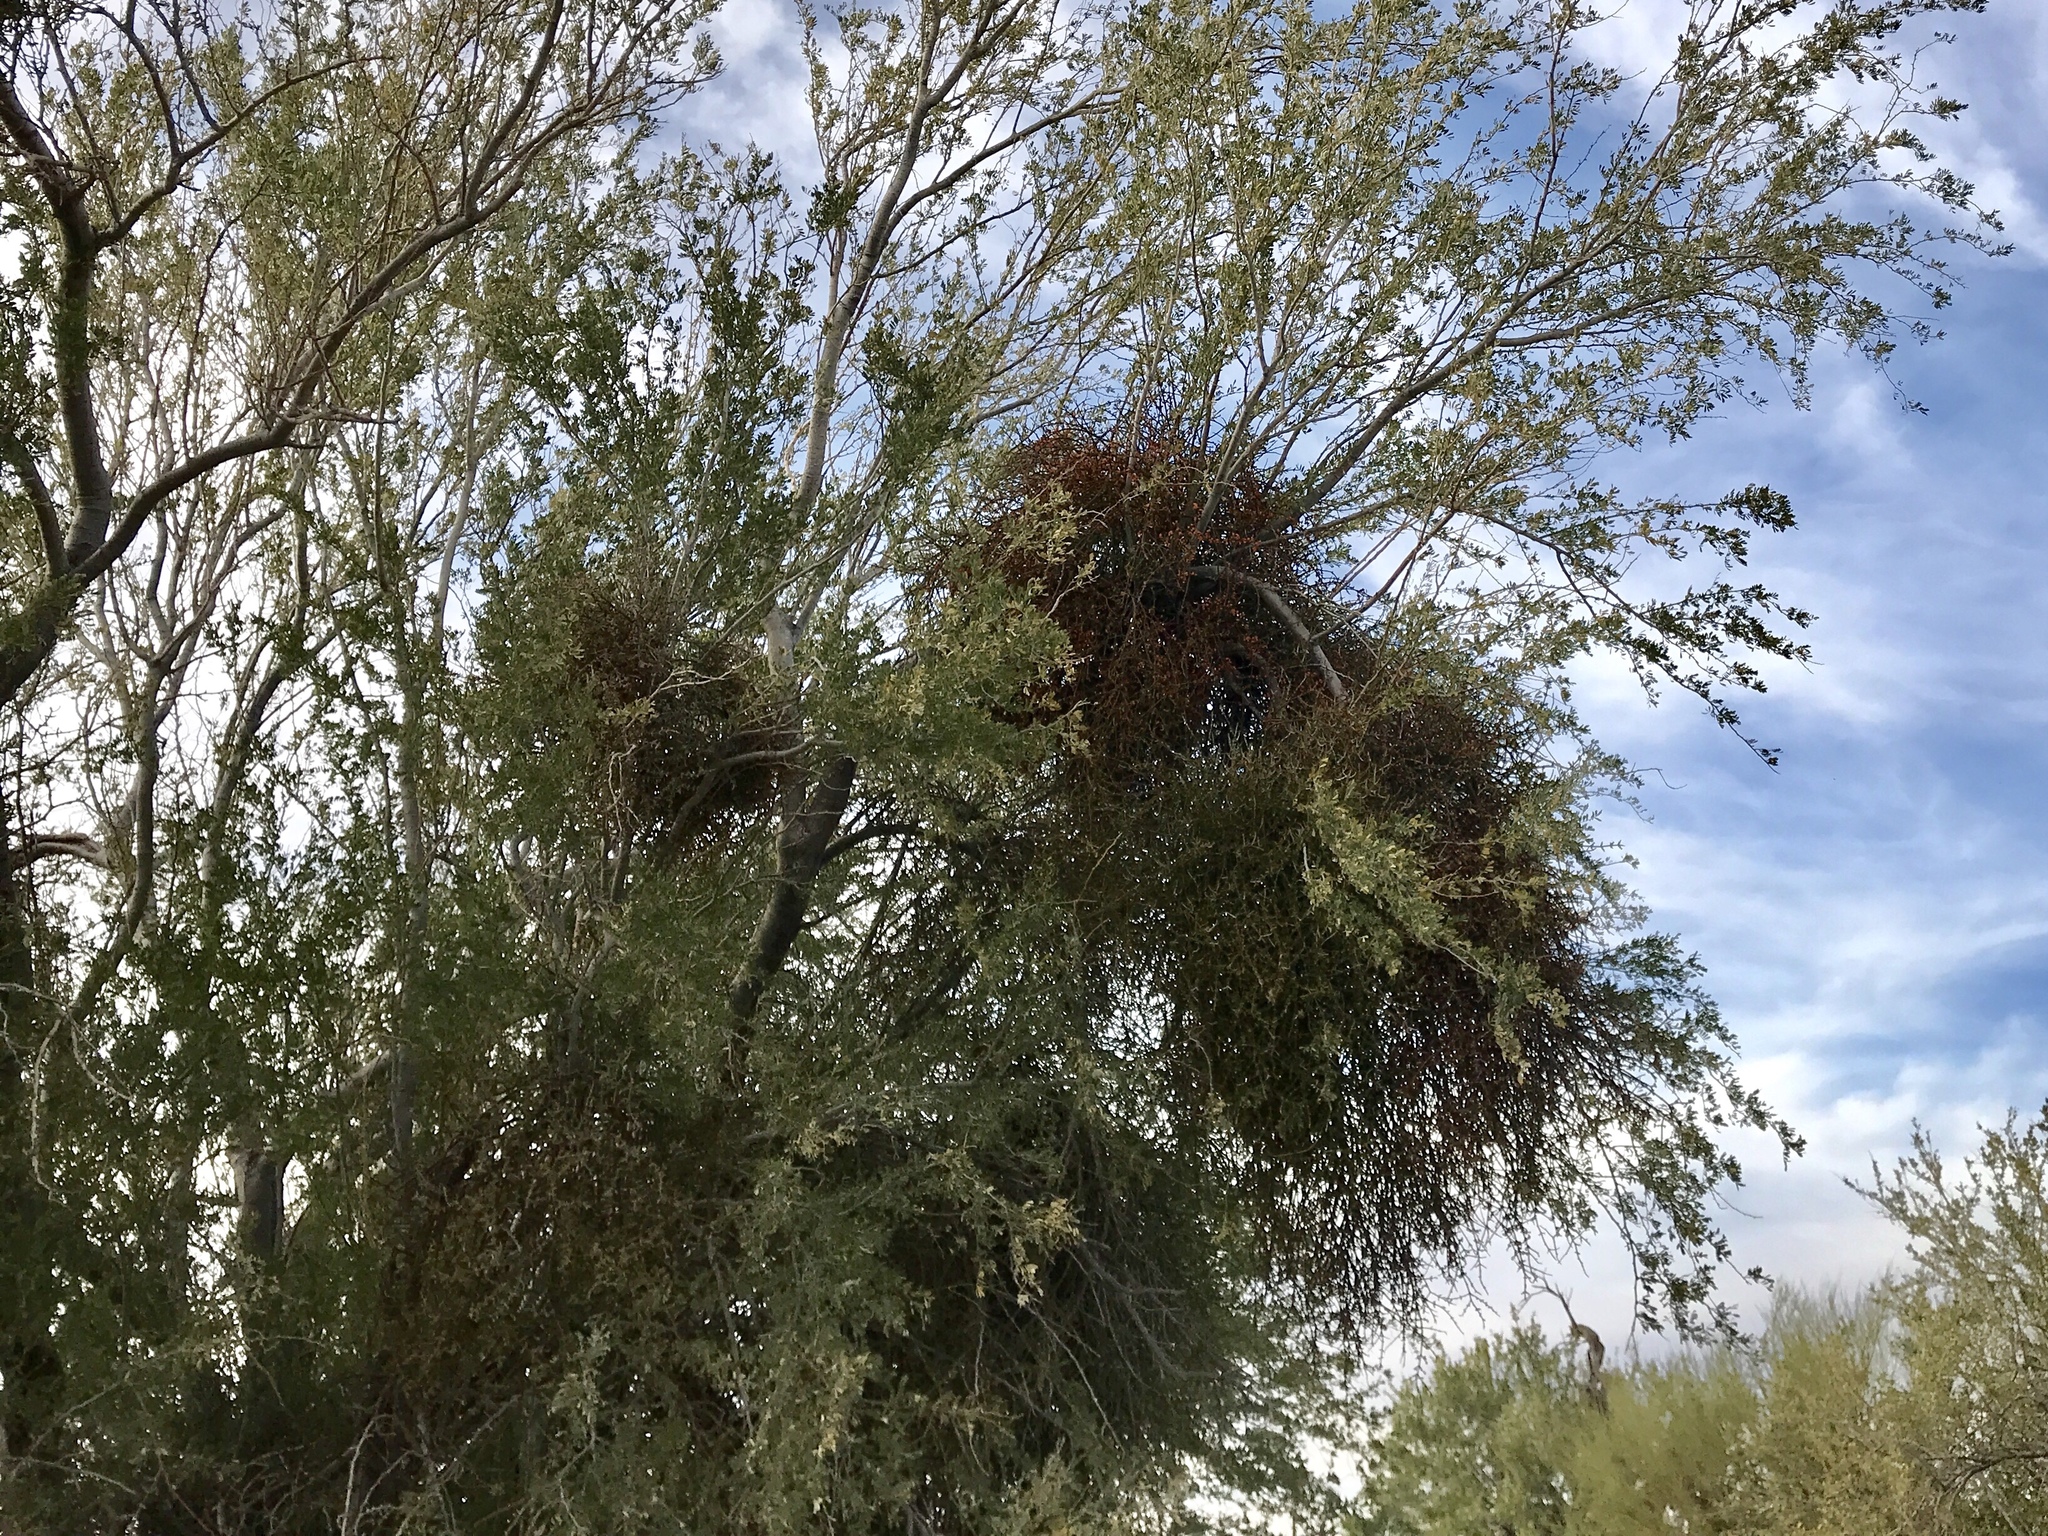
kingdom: Plantae
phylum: Tracheophyta
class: Magnoliopsida
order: Santalales
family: Viscaceae
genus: Phoradendron
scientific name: Phoradendron californicum
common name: Acacia mistletoe
